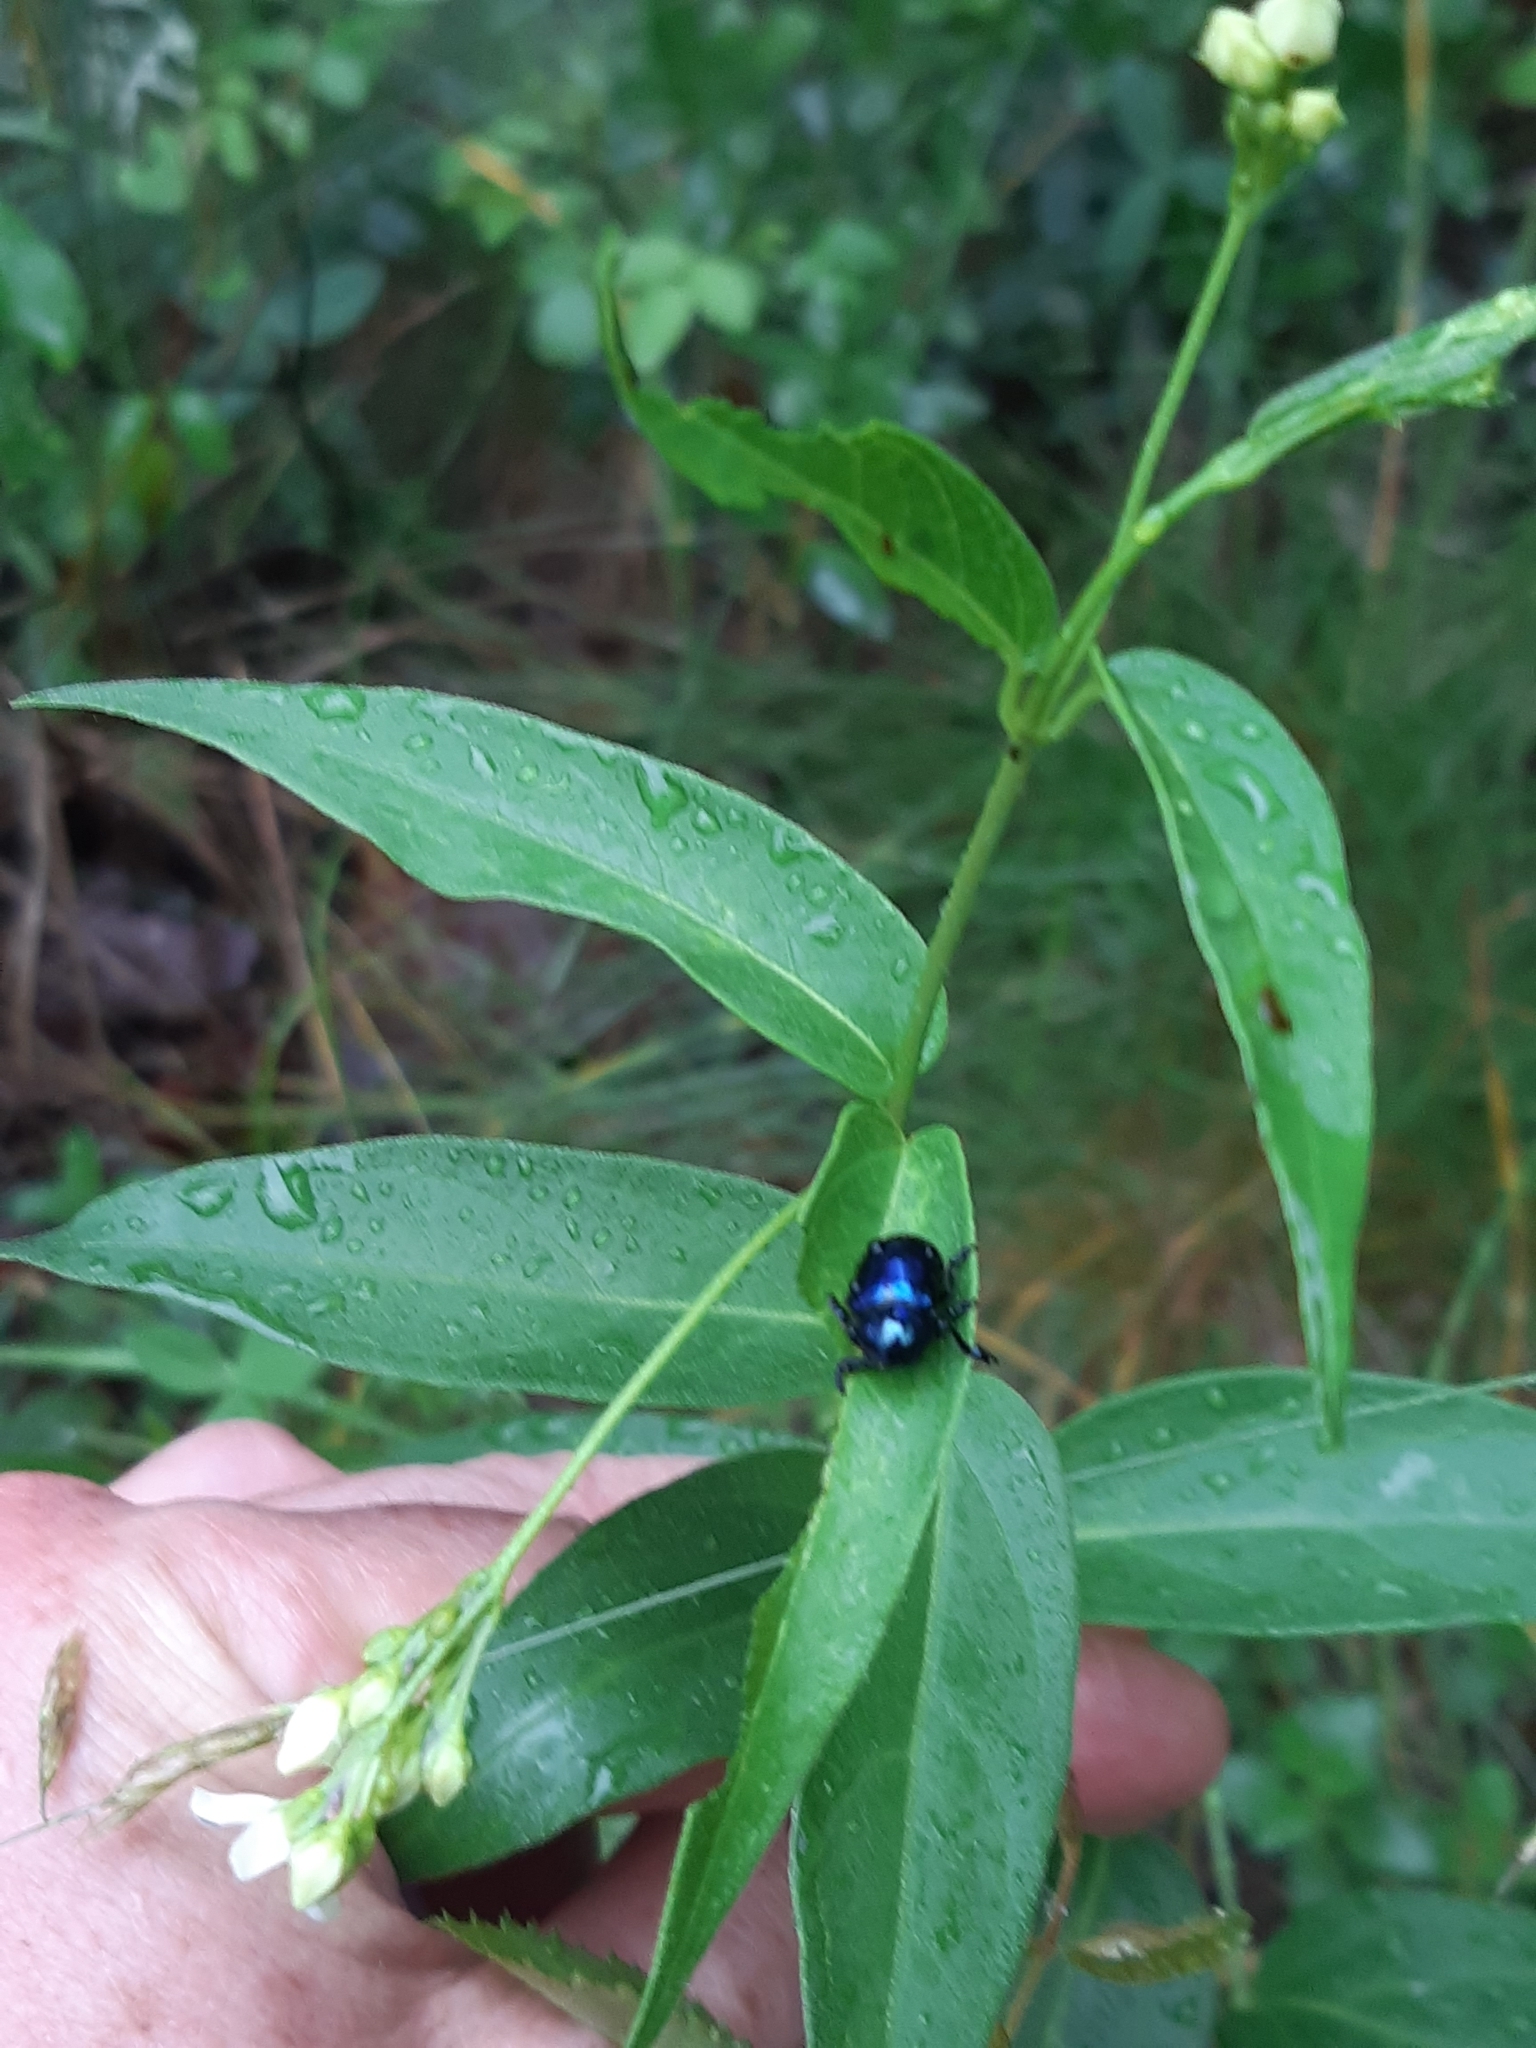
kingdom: Animalia
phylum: Arthropoda
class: Insecta
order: Coleoptera
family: Chrysomelidae
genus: Chrysochus
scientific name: Chrysochus asclepiadeus
